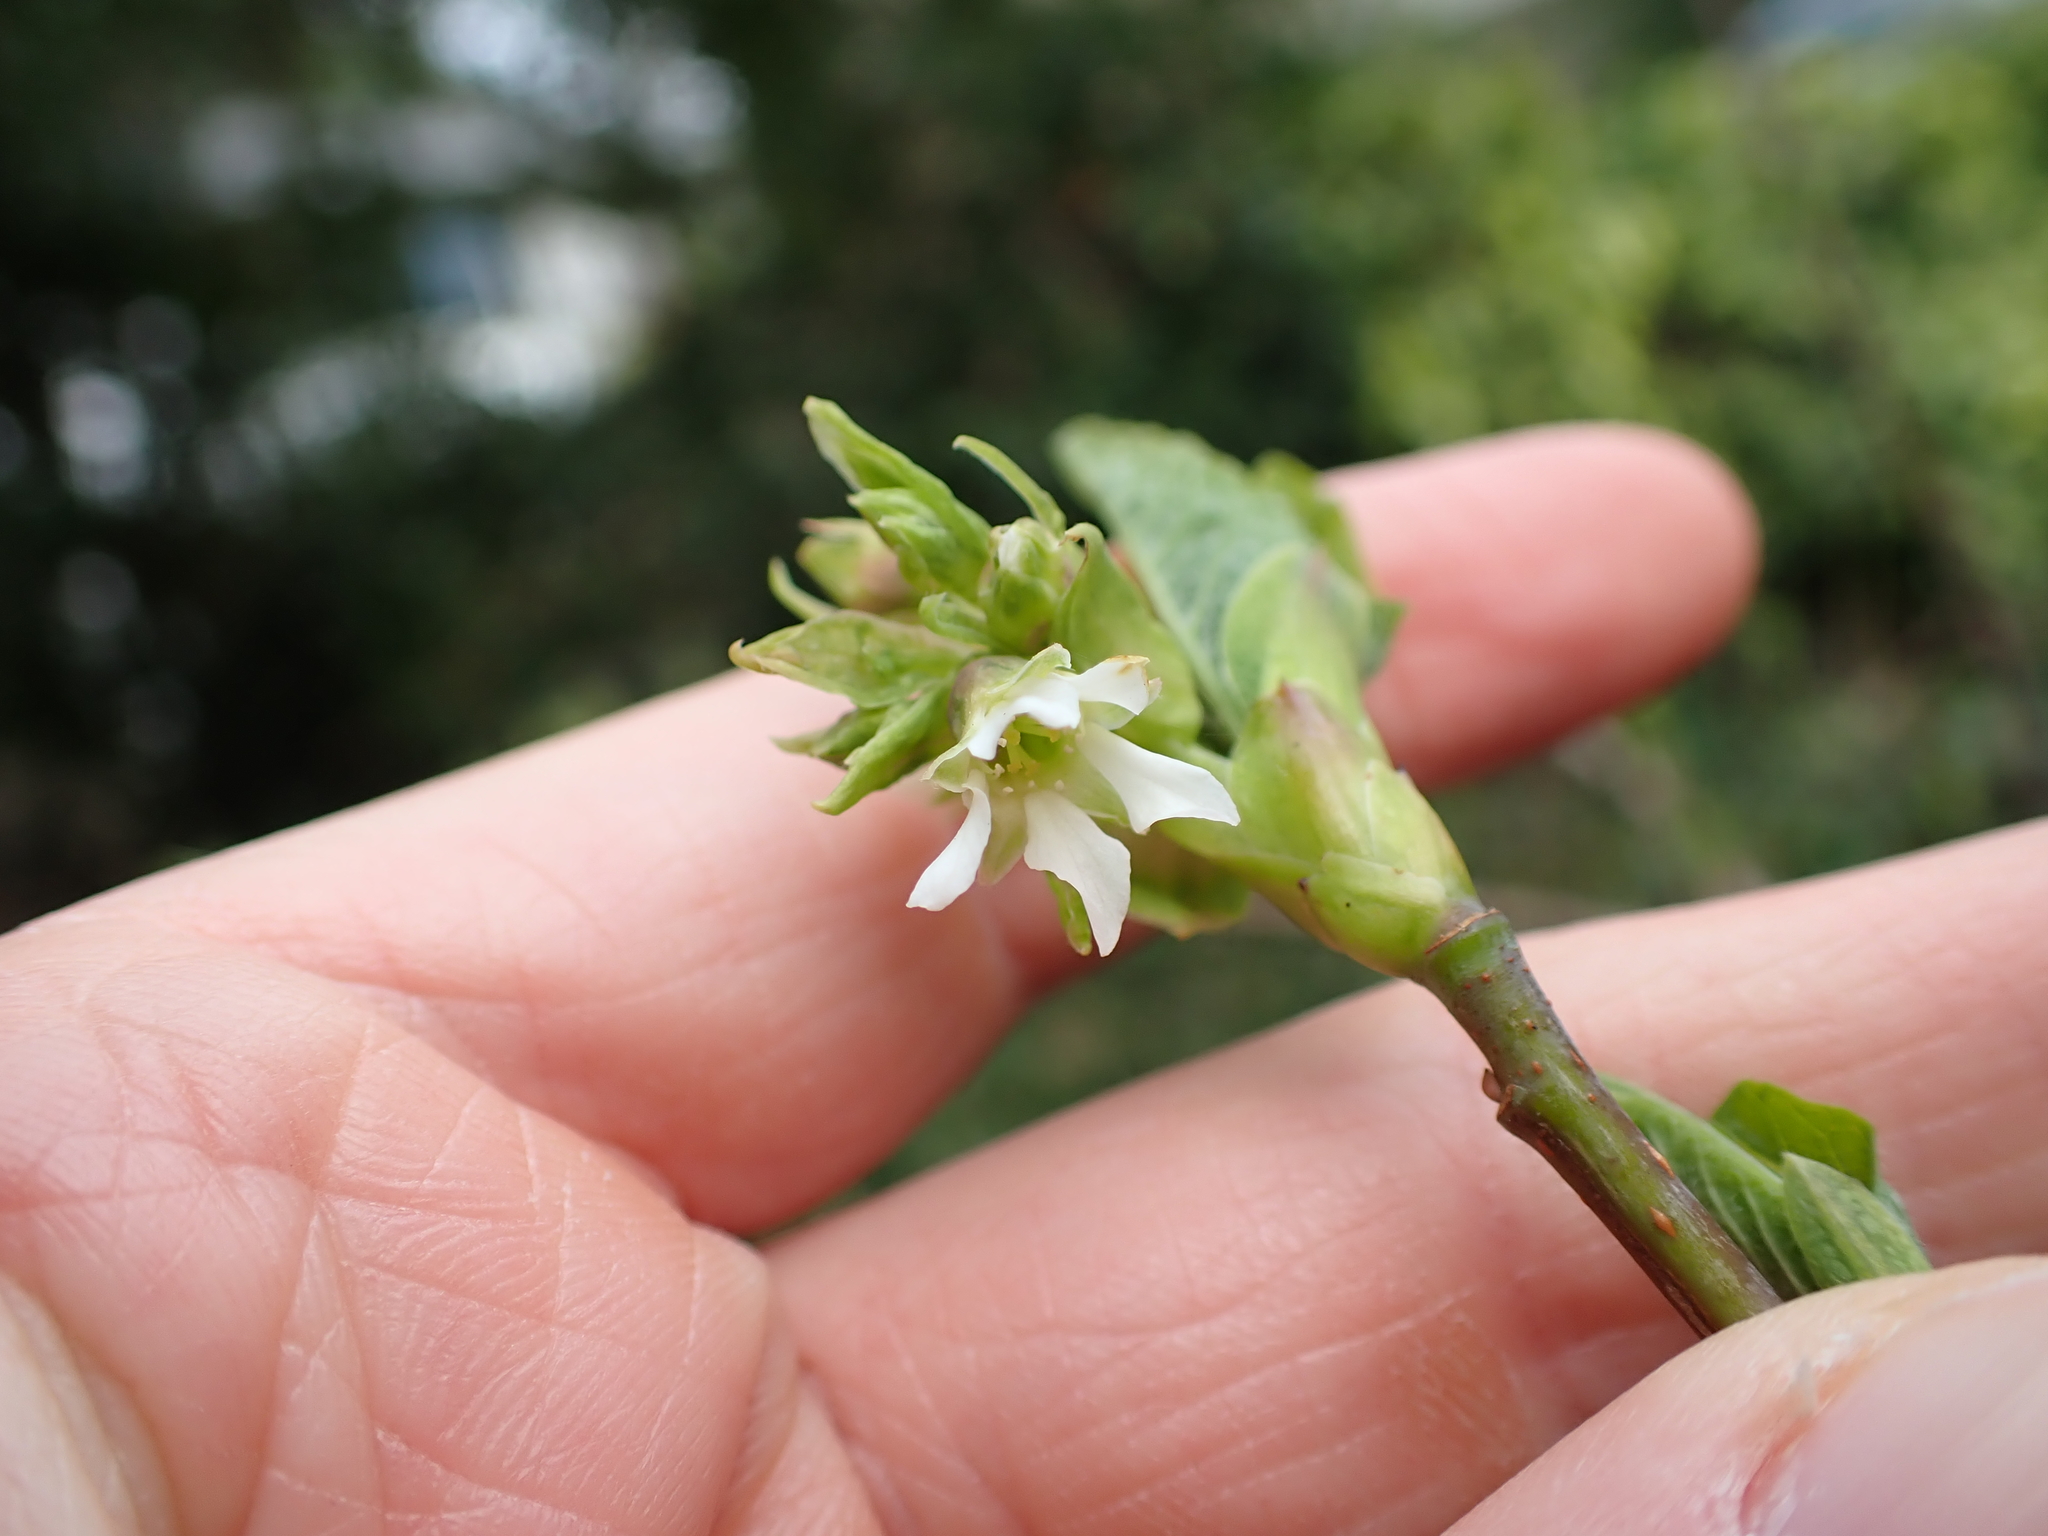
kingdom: Plantae
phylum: Tracheophyta
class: Magnoliopsida
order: Rosales
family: Rosaceae
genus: Oemleria
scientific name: Oemleria cerasiformis
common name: Osoberry
